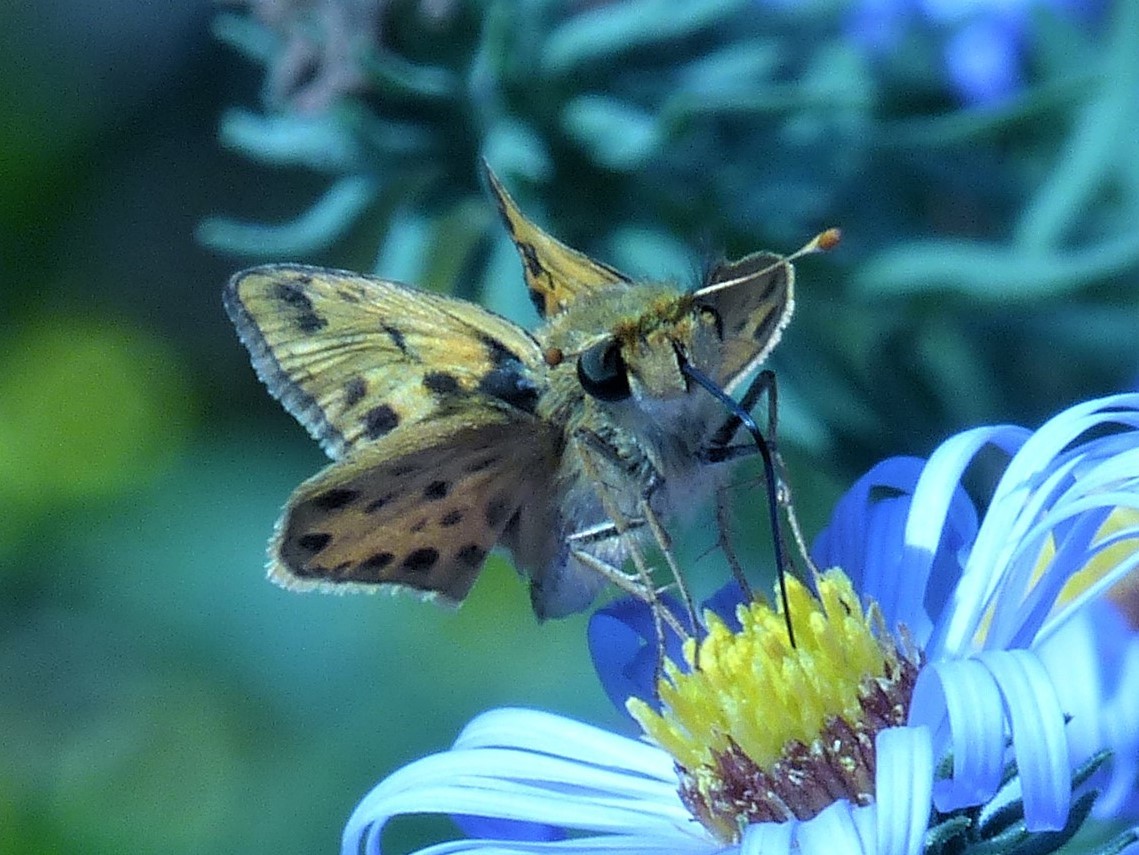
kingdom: Animalia
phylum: Arthropoda
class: Insecta
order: Lepidoptera
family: Hesperiidae
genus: Hylephila
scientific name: Hylephila phyleus
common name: Fiery skipper
